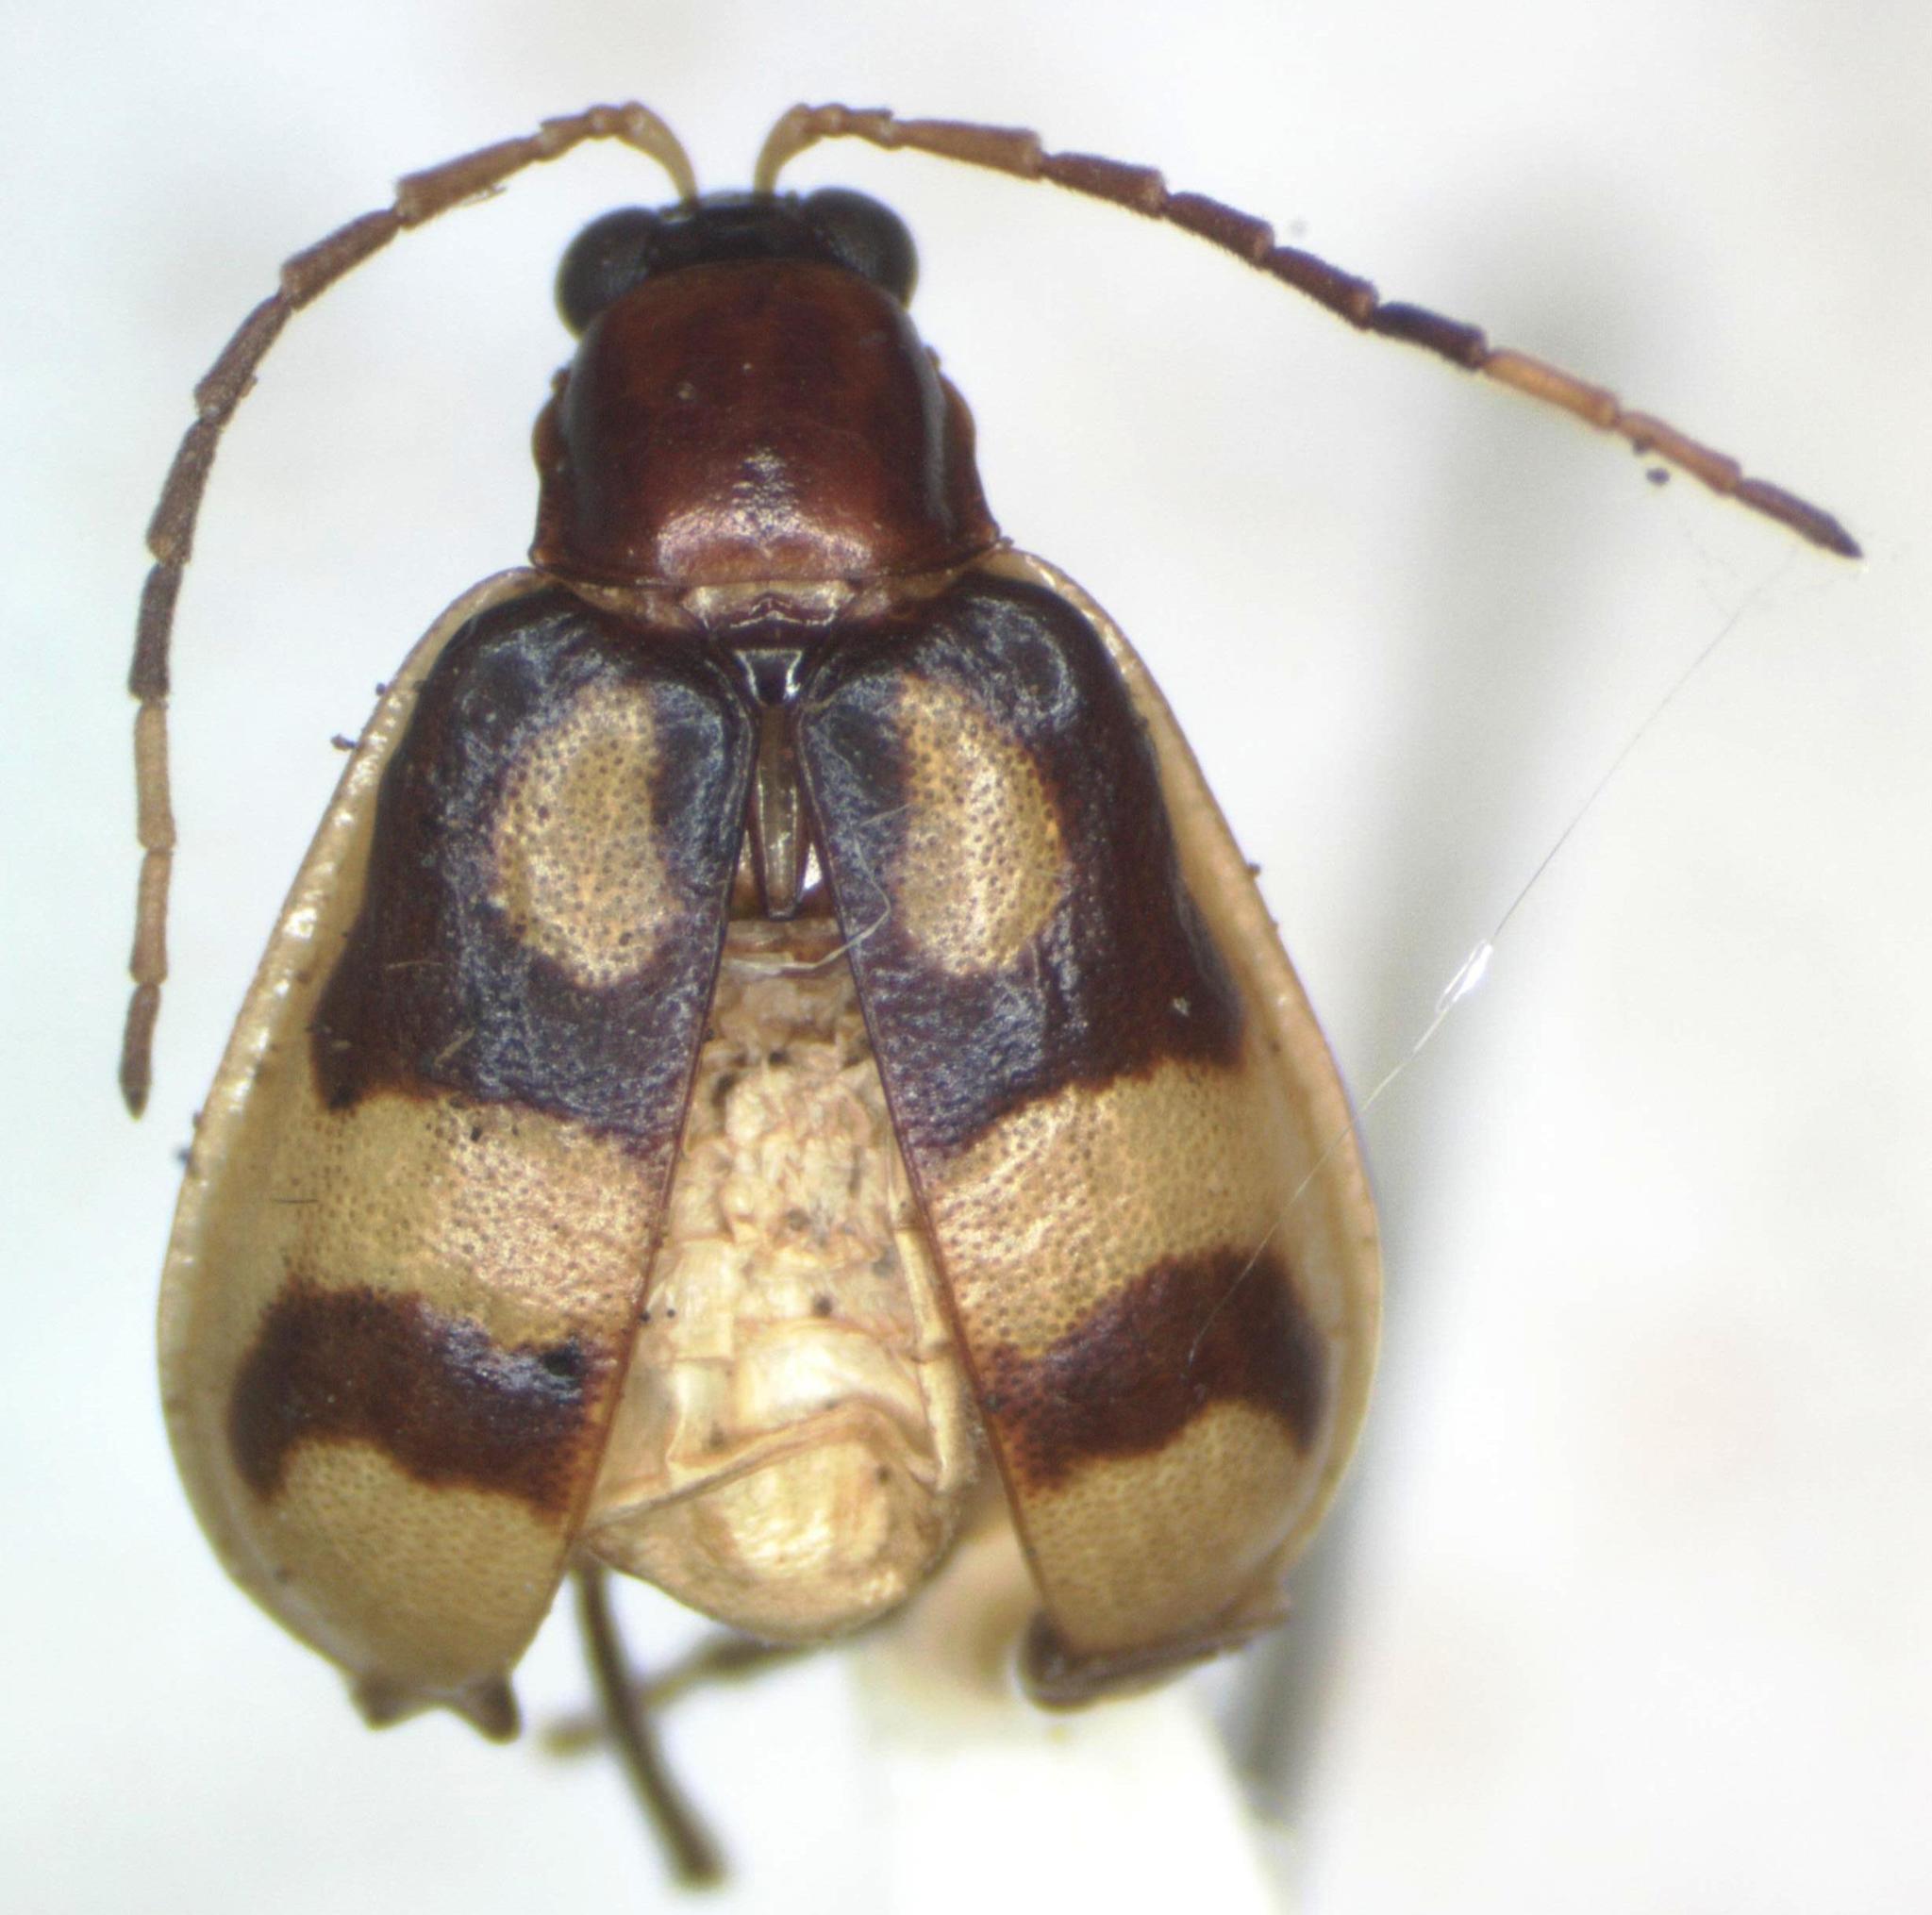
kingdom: Animalia
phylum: Arthropoda
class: Insecta
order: Coleoptera
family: Chrysomelidae
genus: Diabrotica
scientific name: Diabrotica adelpha
